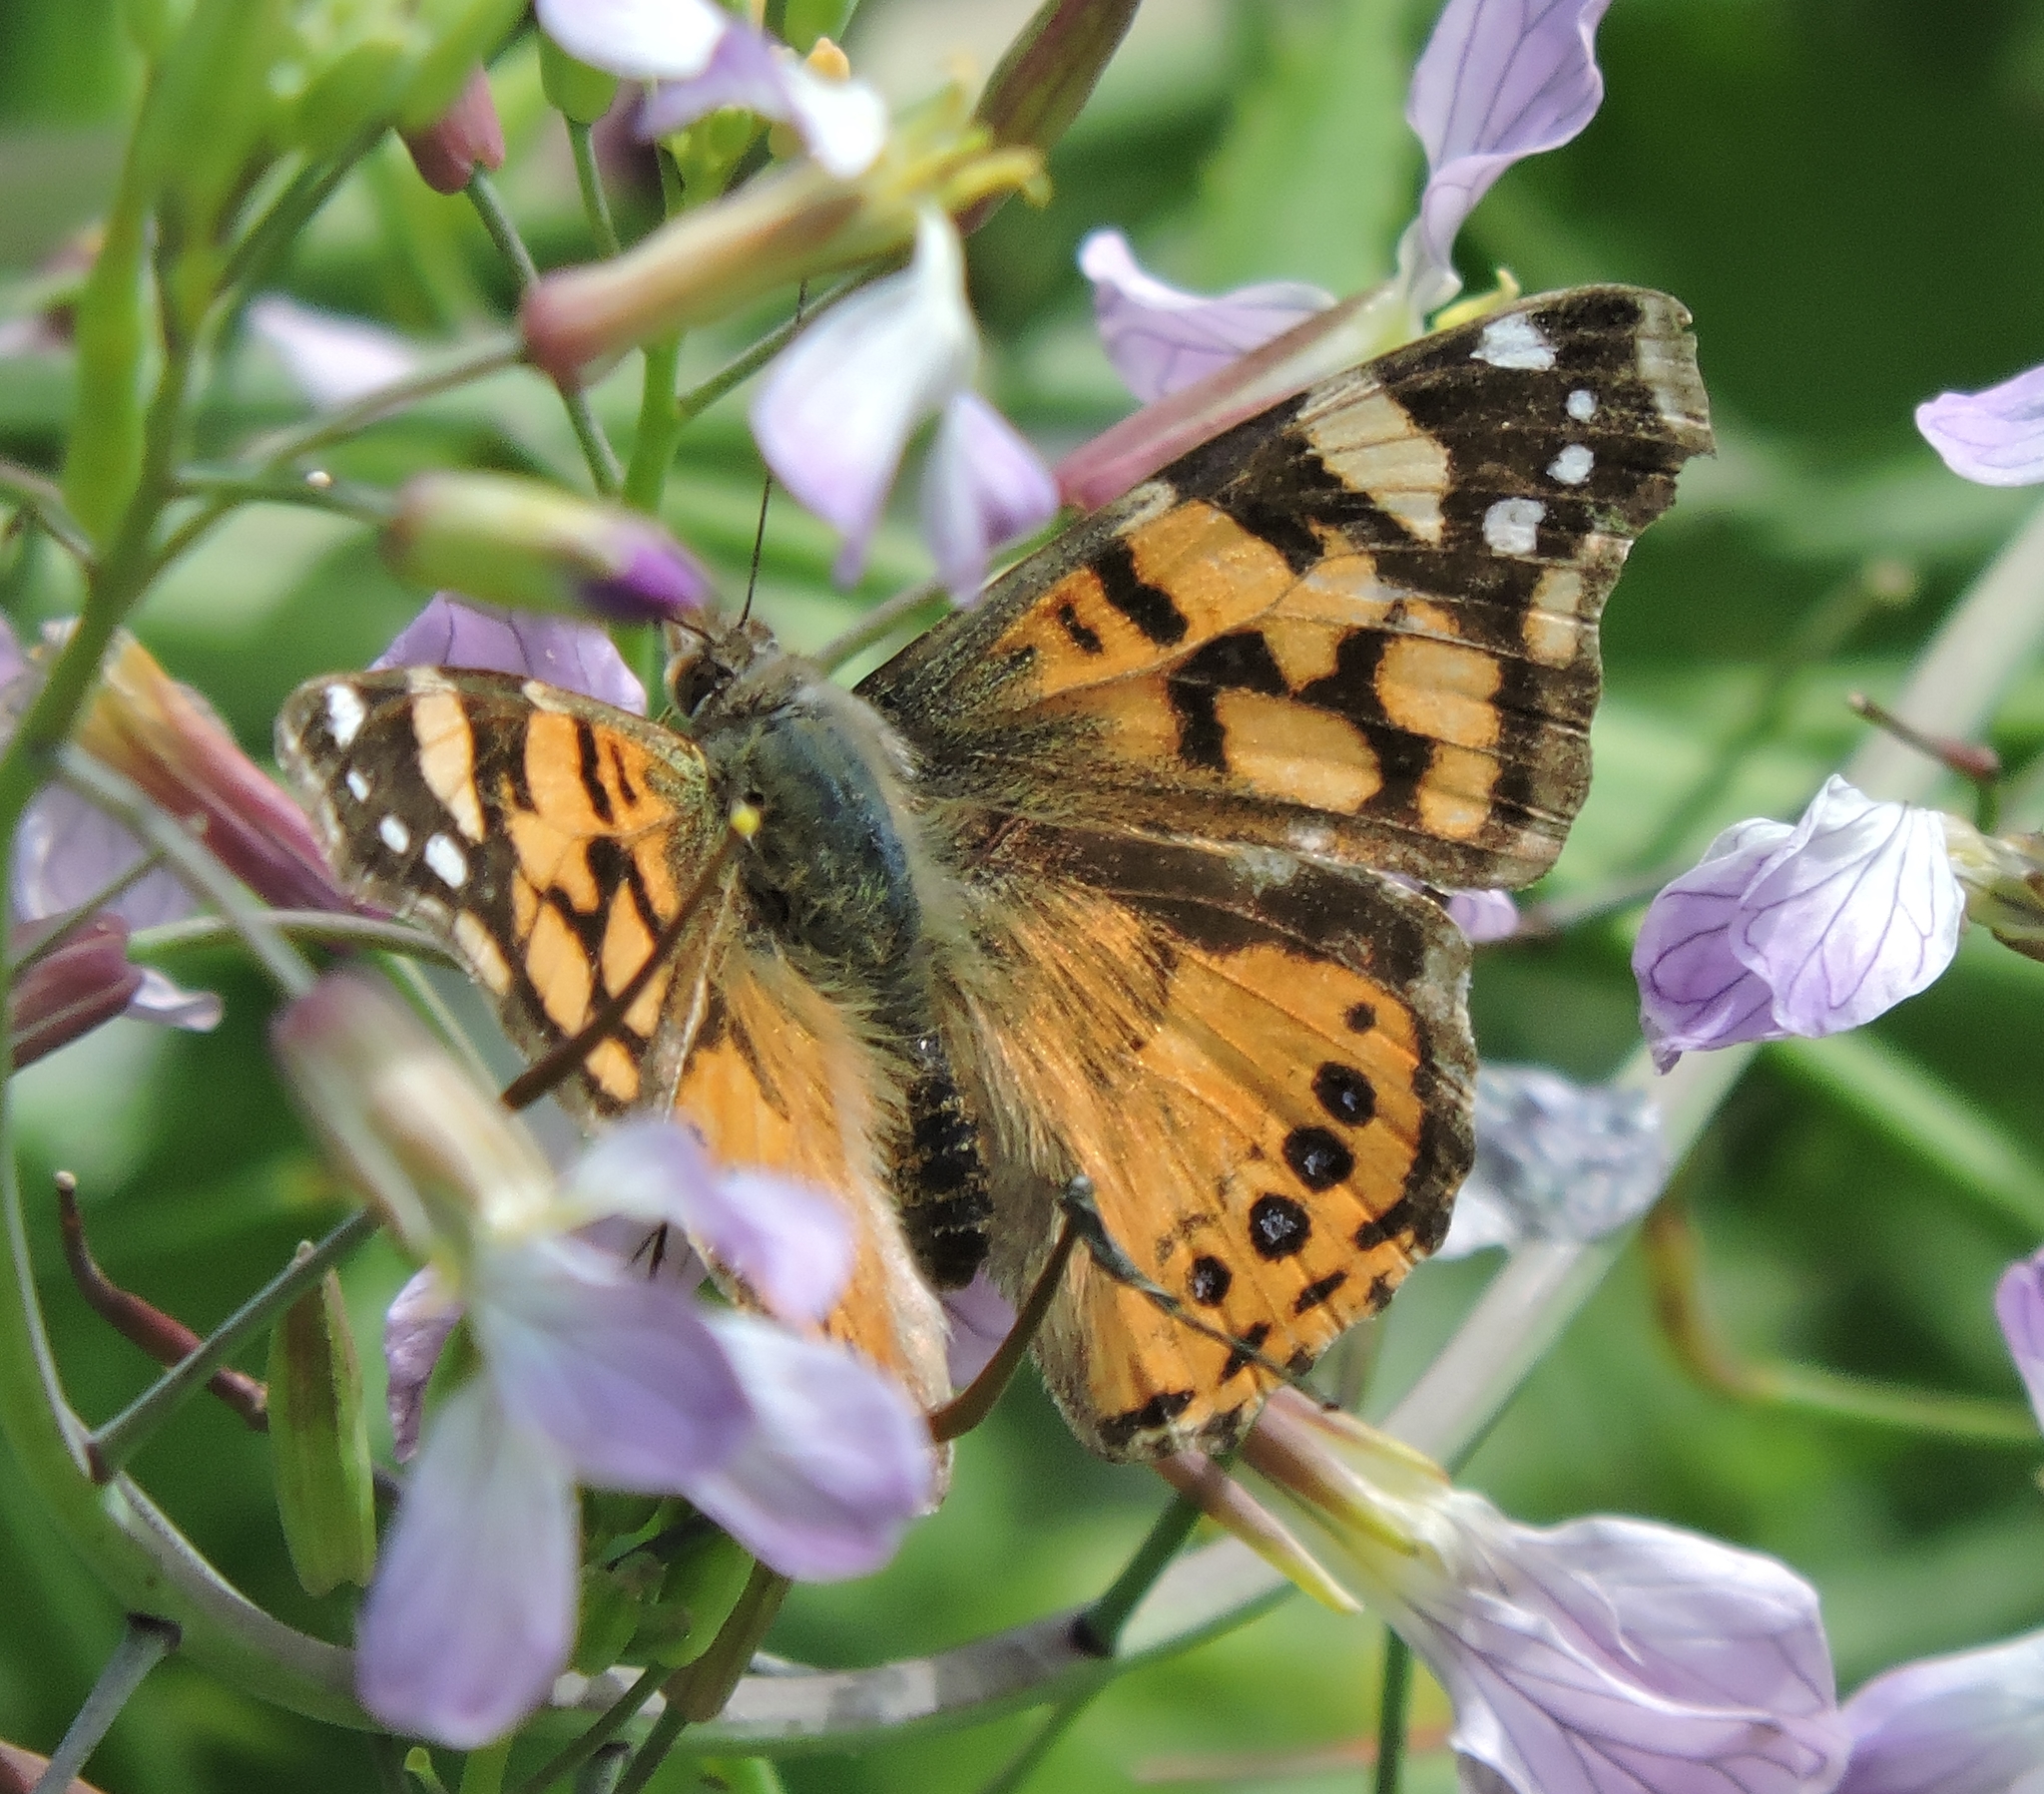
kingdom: Animalia
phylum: Arthropoda
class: Insecta
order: Lepidoptera
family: Nymphalidae
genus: Vanessa
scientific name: Vanessa annabella
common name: West coast lady
